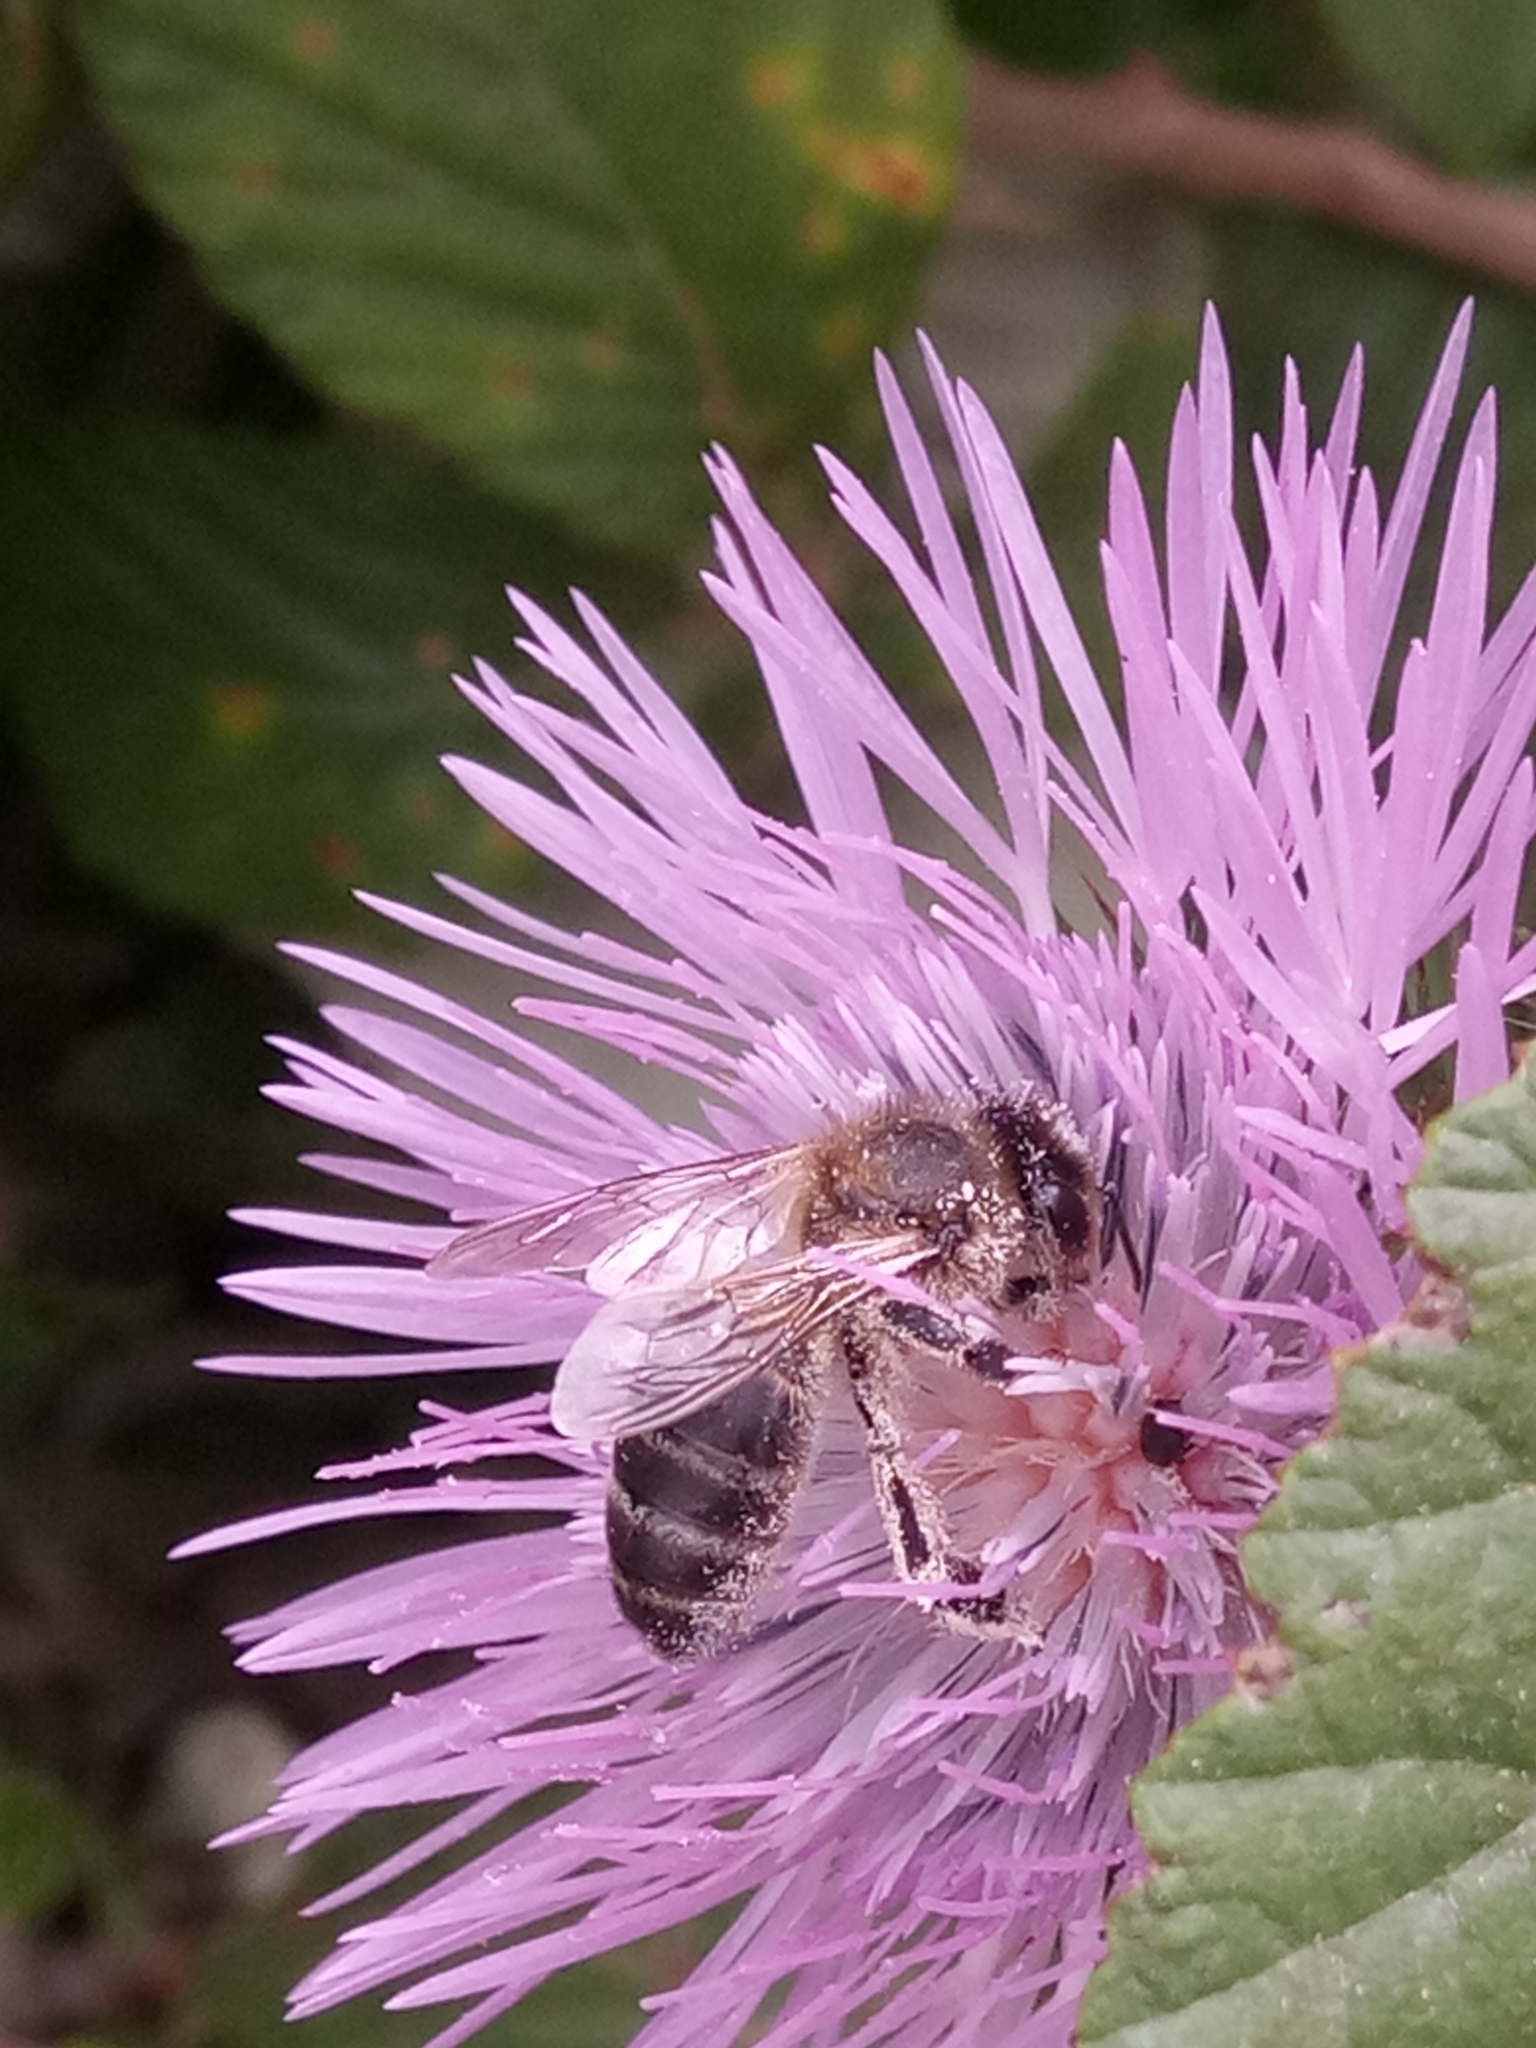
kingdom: Animalia
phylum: Arthropoda
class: Insecta
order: Hymenoptera
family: Apidae
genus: Apis
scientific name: Apis mellifera
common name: Honey bee
